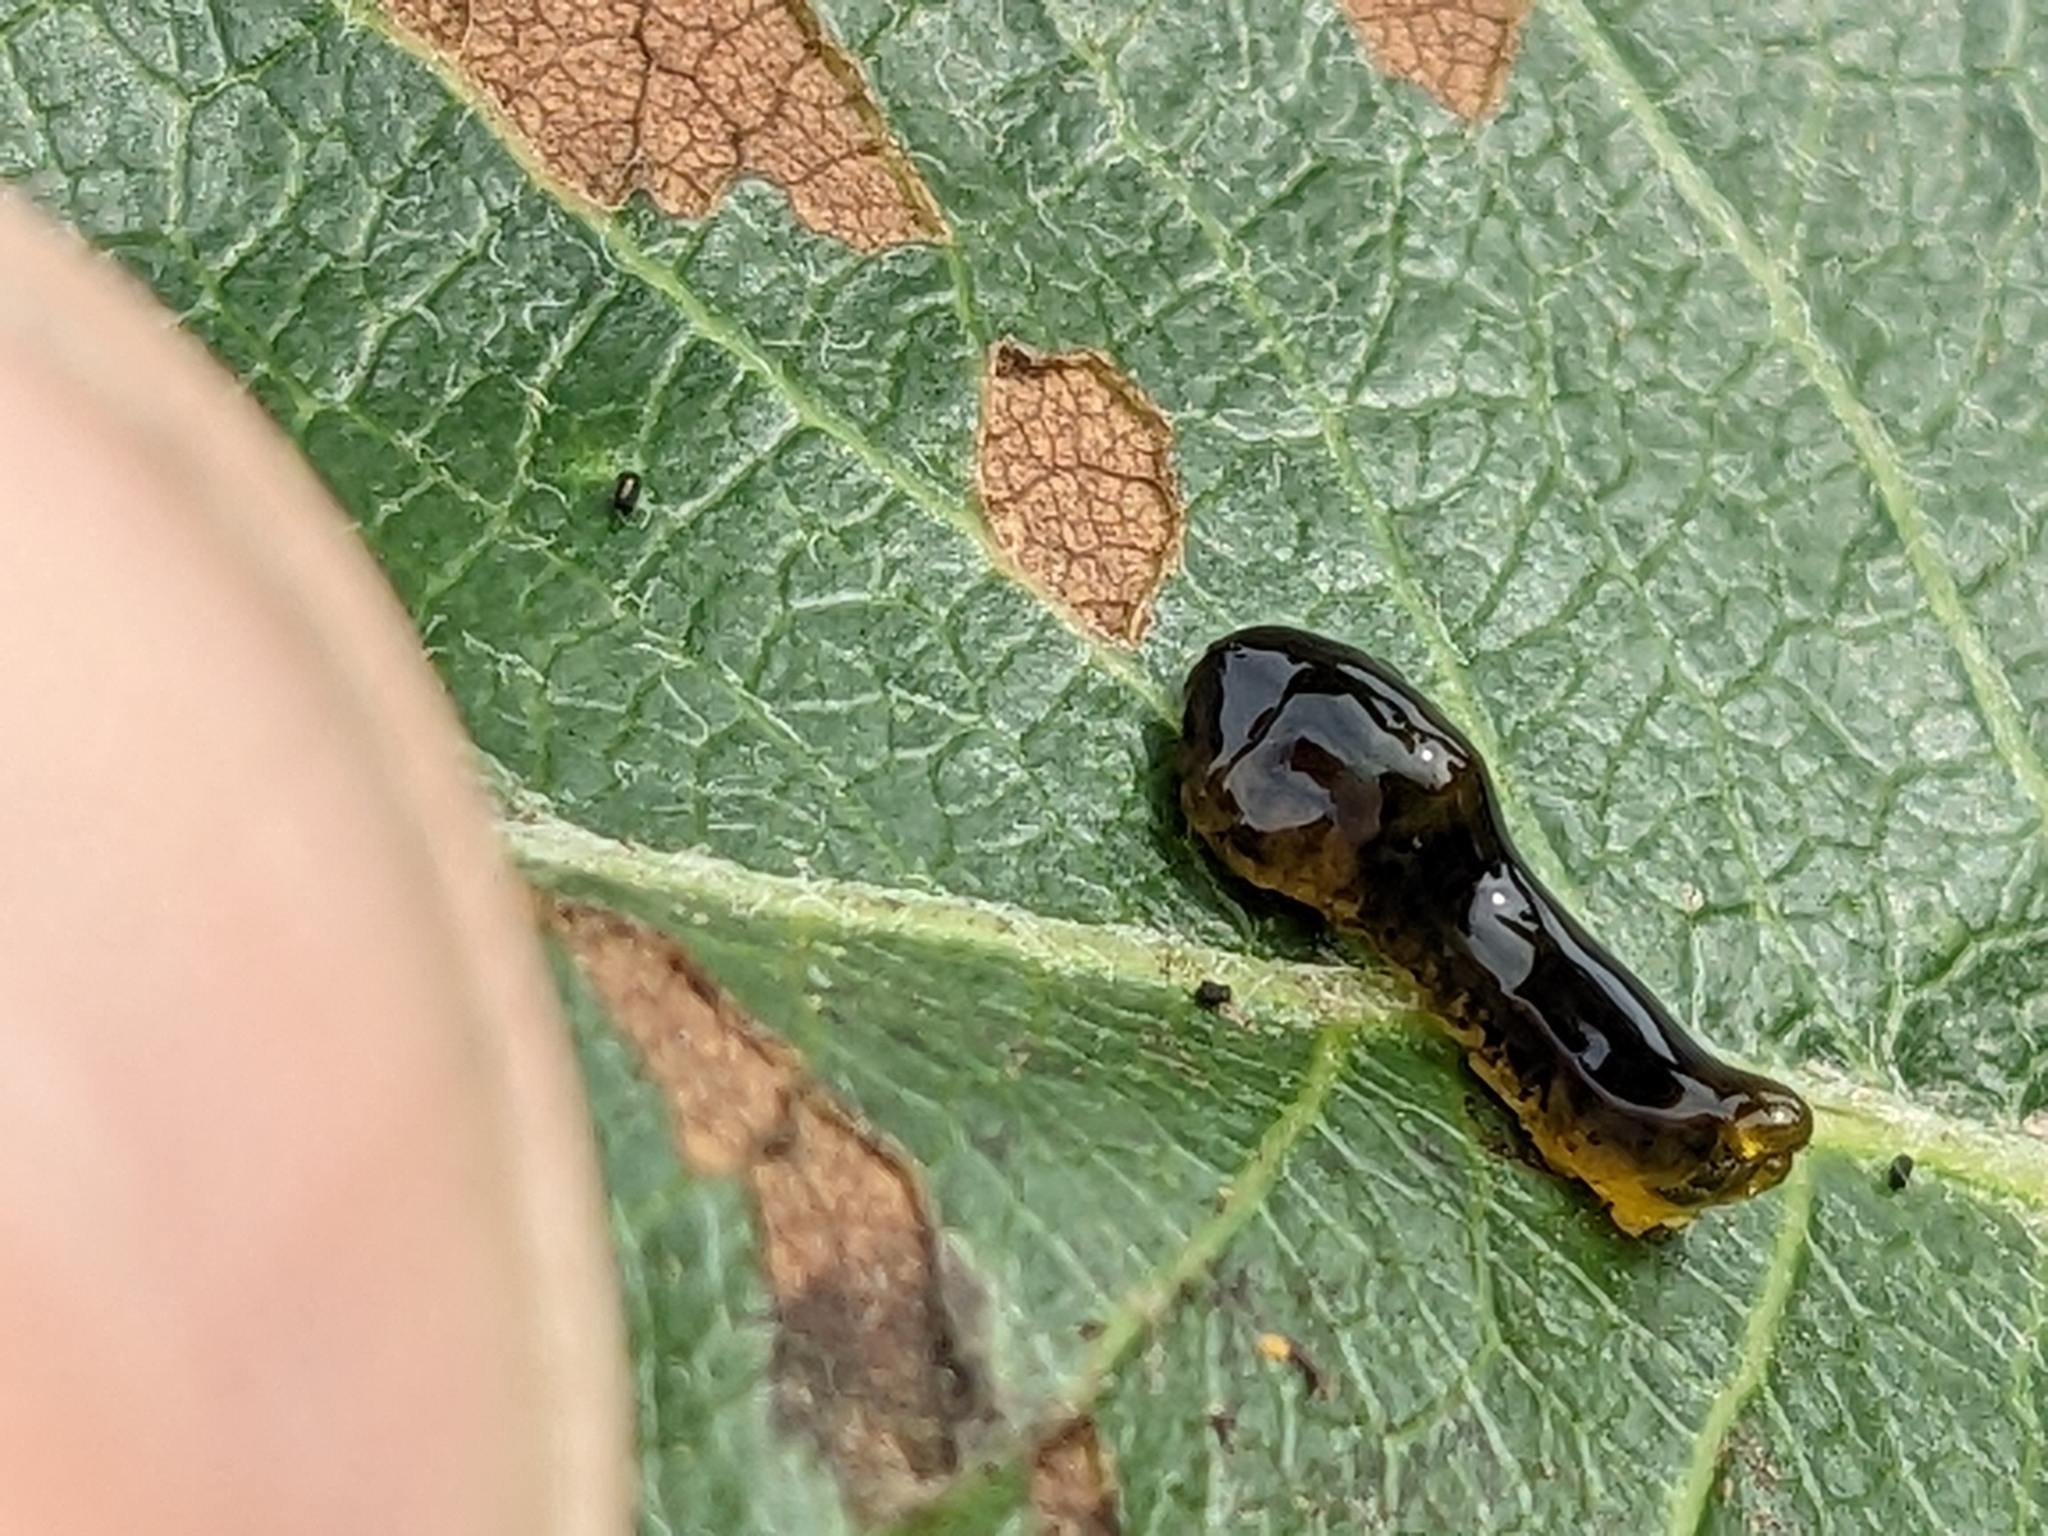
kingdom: Animalia
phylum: Arthropoda
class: Insecta
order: Hymenoptera
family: Tenthredinidae
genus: Caliroa
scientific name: Caliroa cerasi
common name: Pear sawfly
